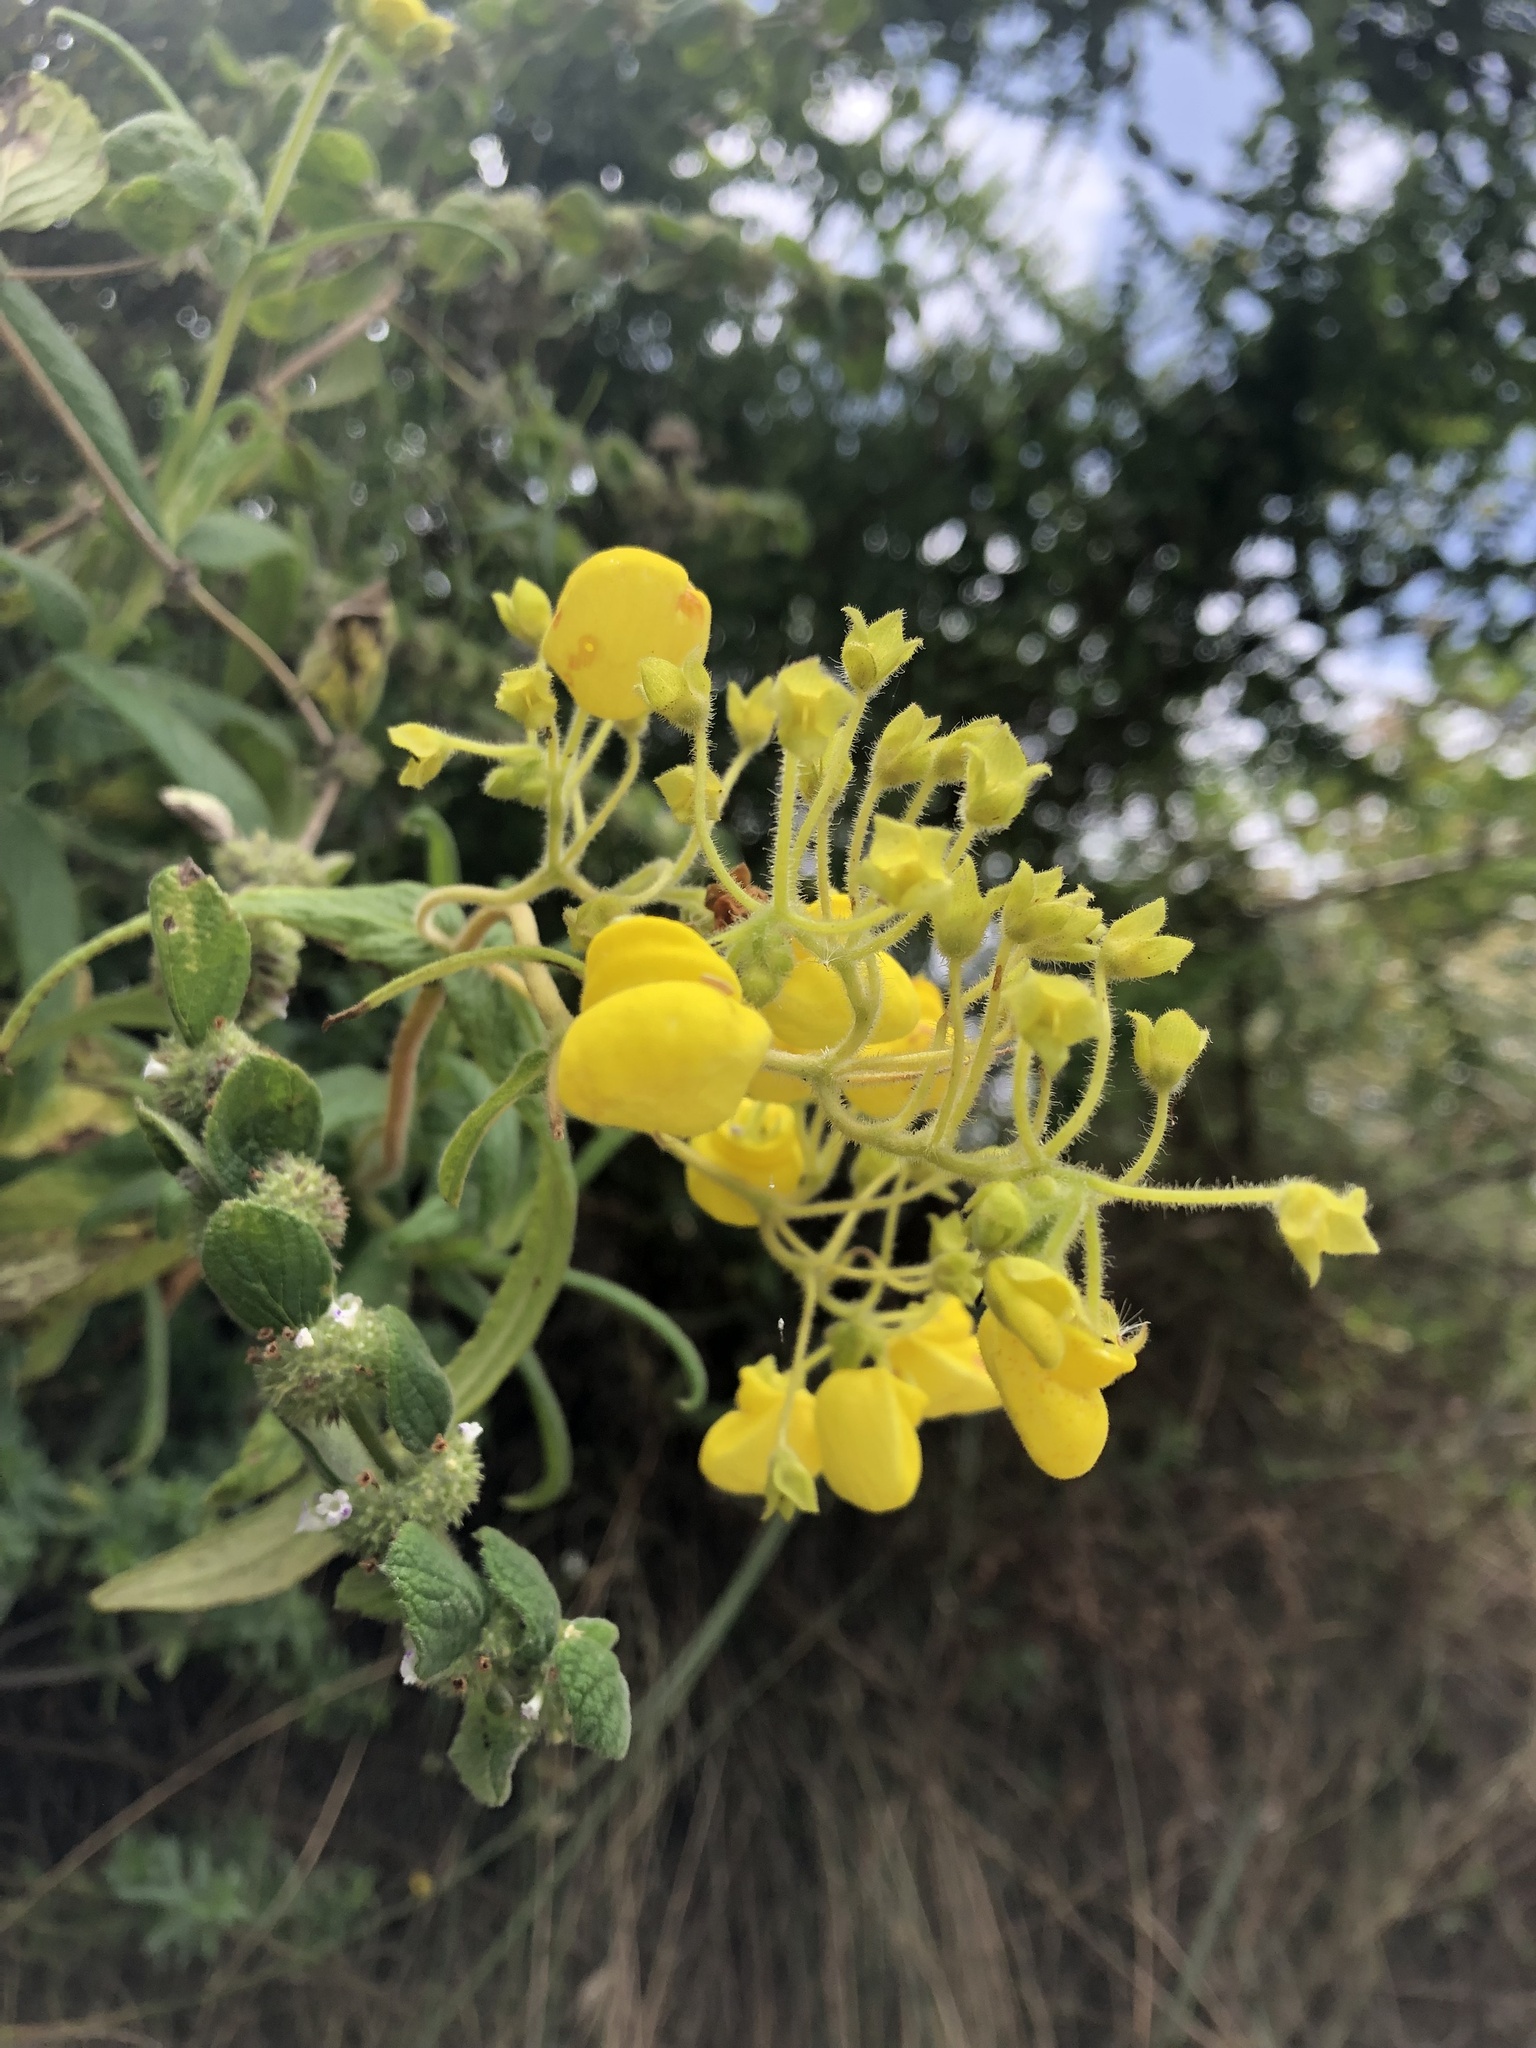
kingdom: Plantae
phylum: Tracheophyta
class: Magnoliopsida
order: Lamiales
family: Calceolariaceae
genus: Calceolaria
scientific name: Calceolaria crenata
